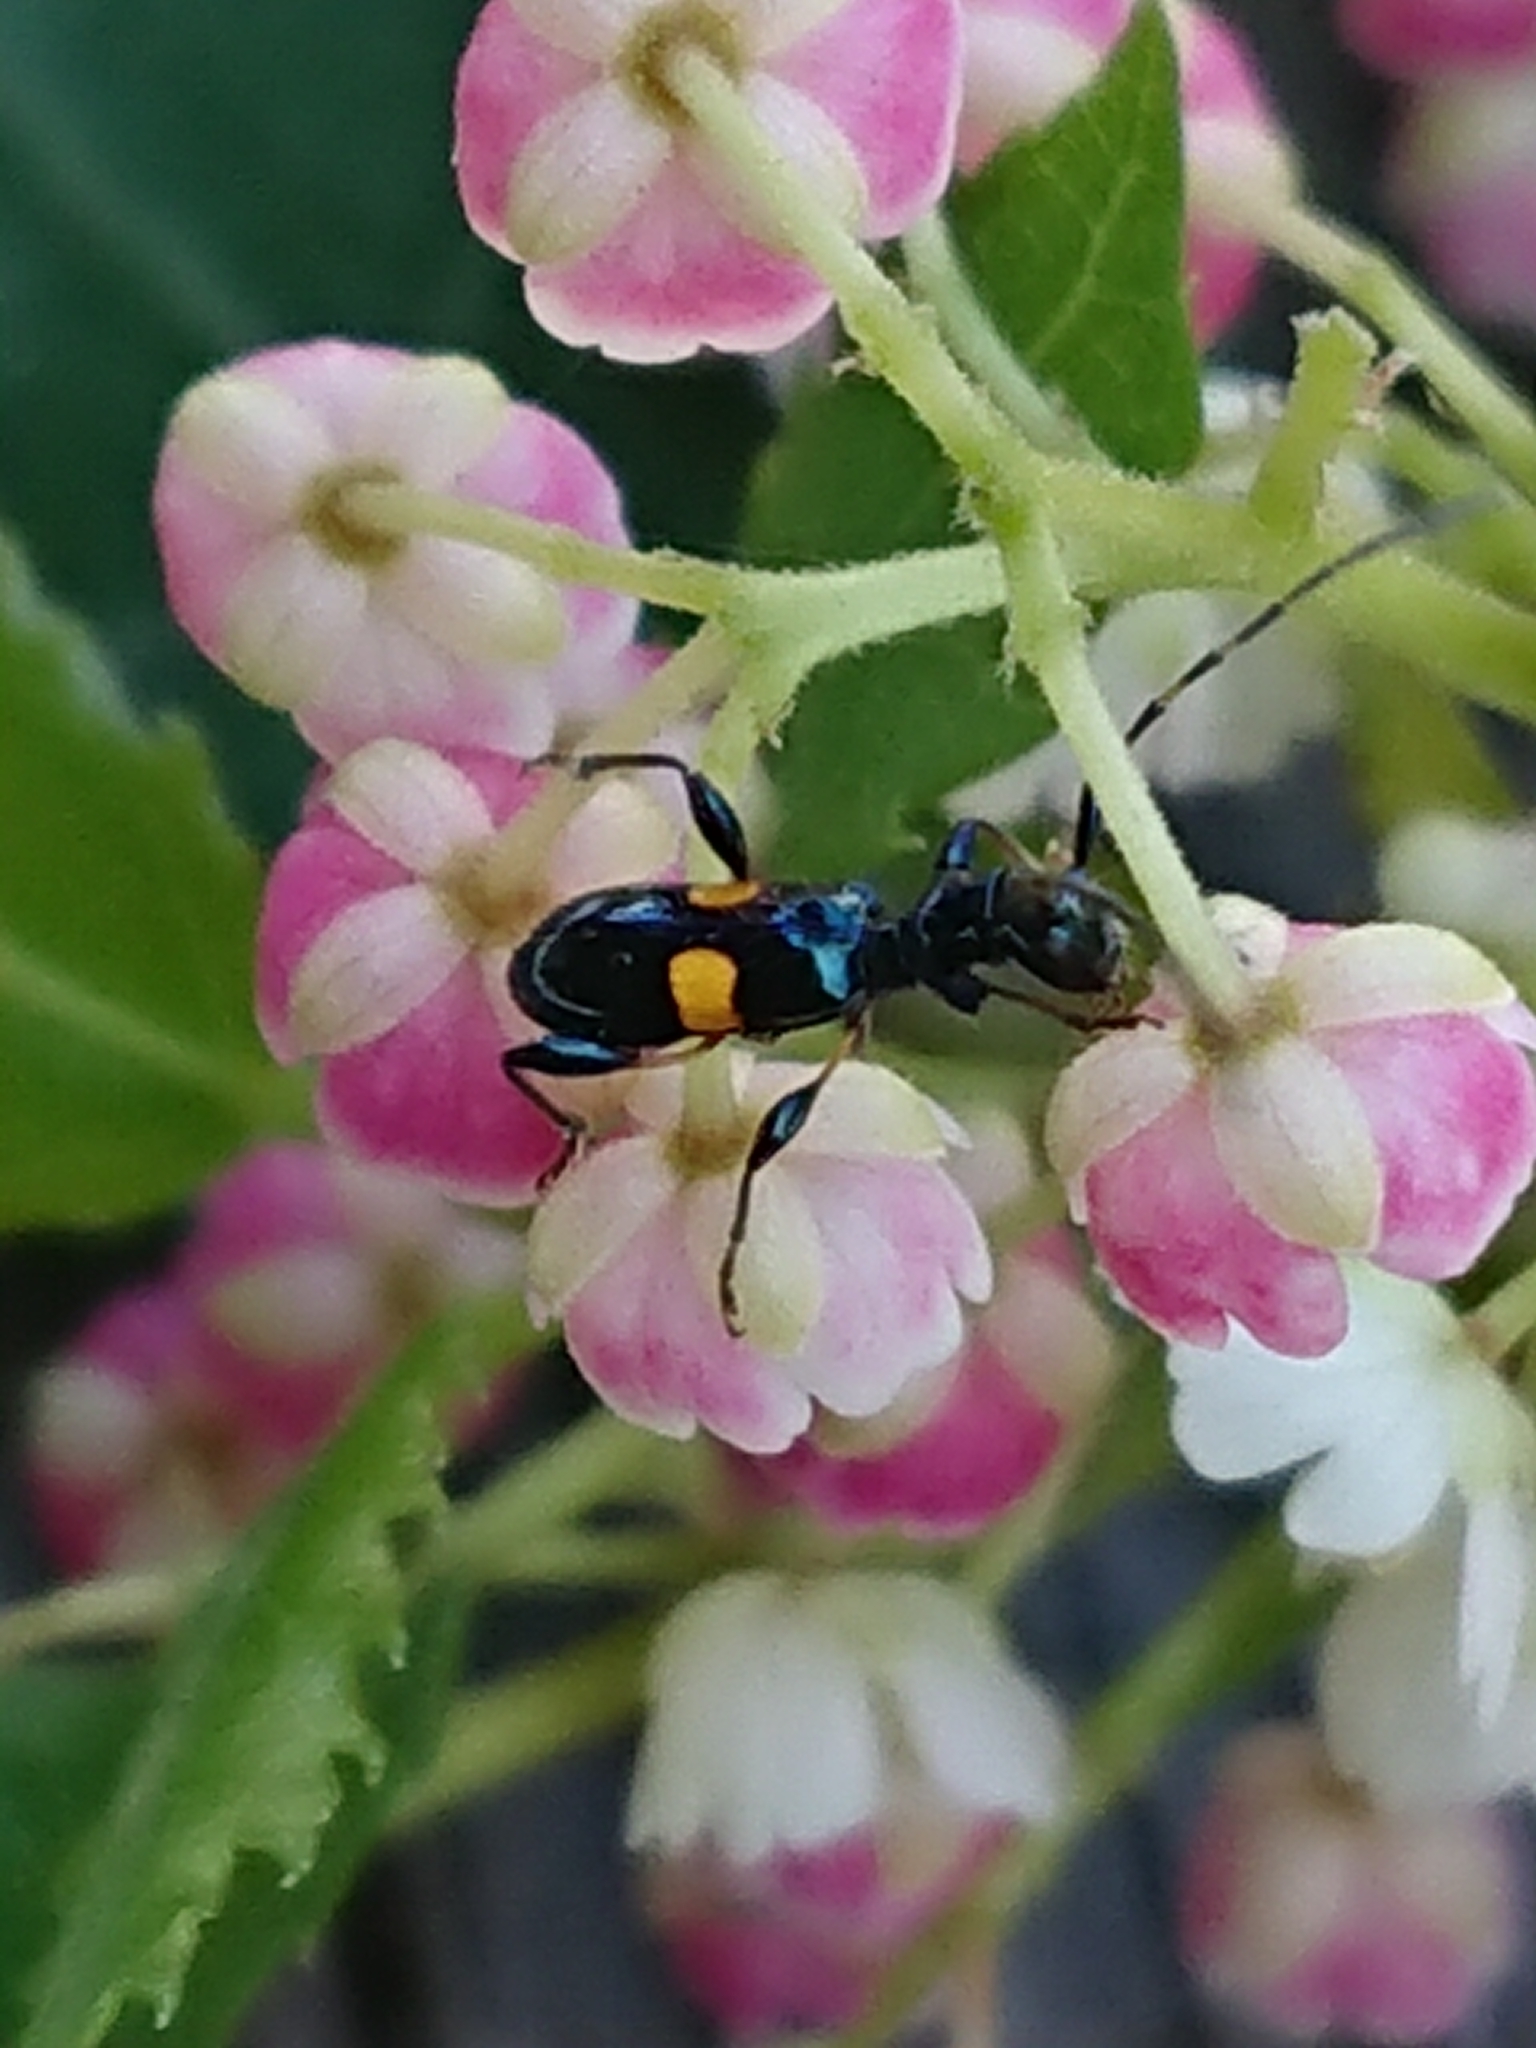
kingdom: Animalia
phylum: Arthropoda
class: Insecta
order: Coleoptera
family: Cerambycidae
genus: Zorion
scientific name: Zorion guttigerum
